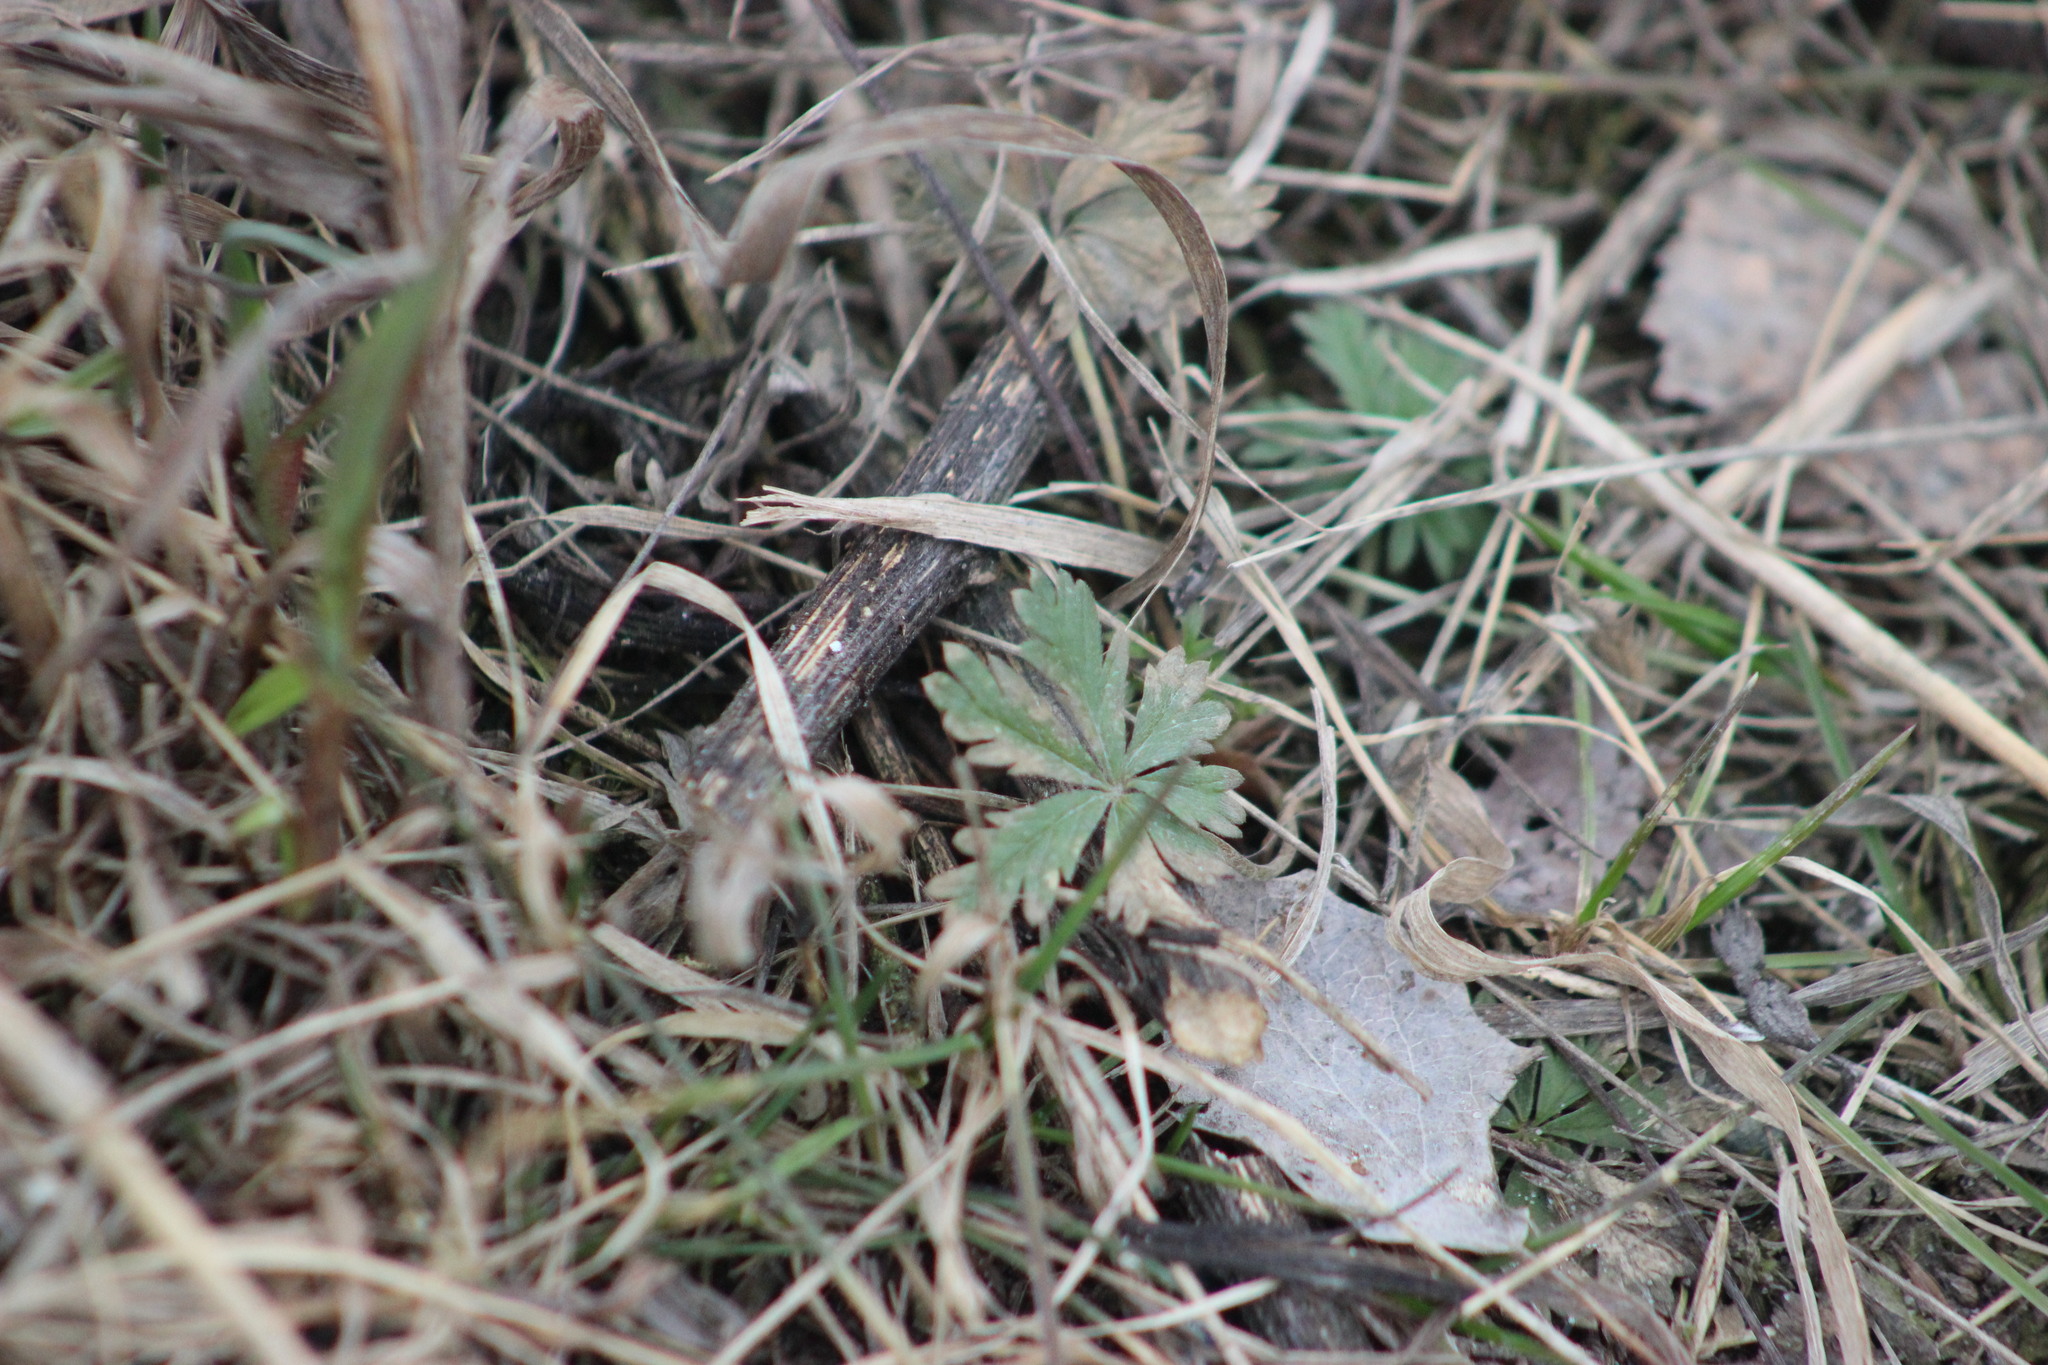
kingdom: Plantae
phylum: Tracheophyta
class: Magnoliopsida
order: Rosales
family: Rosaceae
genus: Potentilla
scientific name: Potentilla argentea
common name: Hoary cinquefoil
